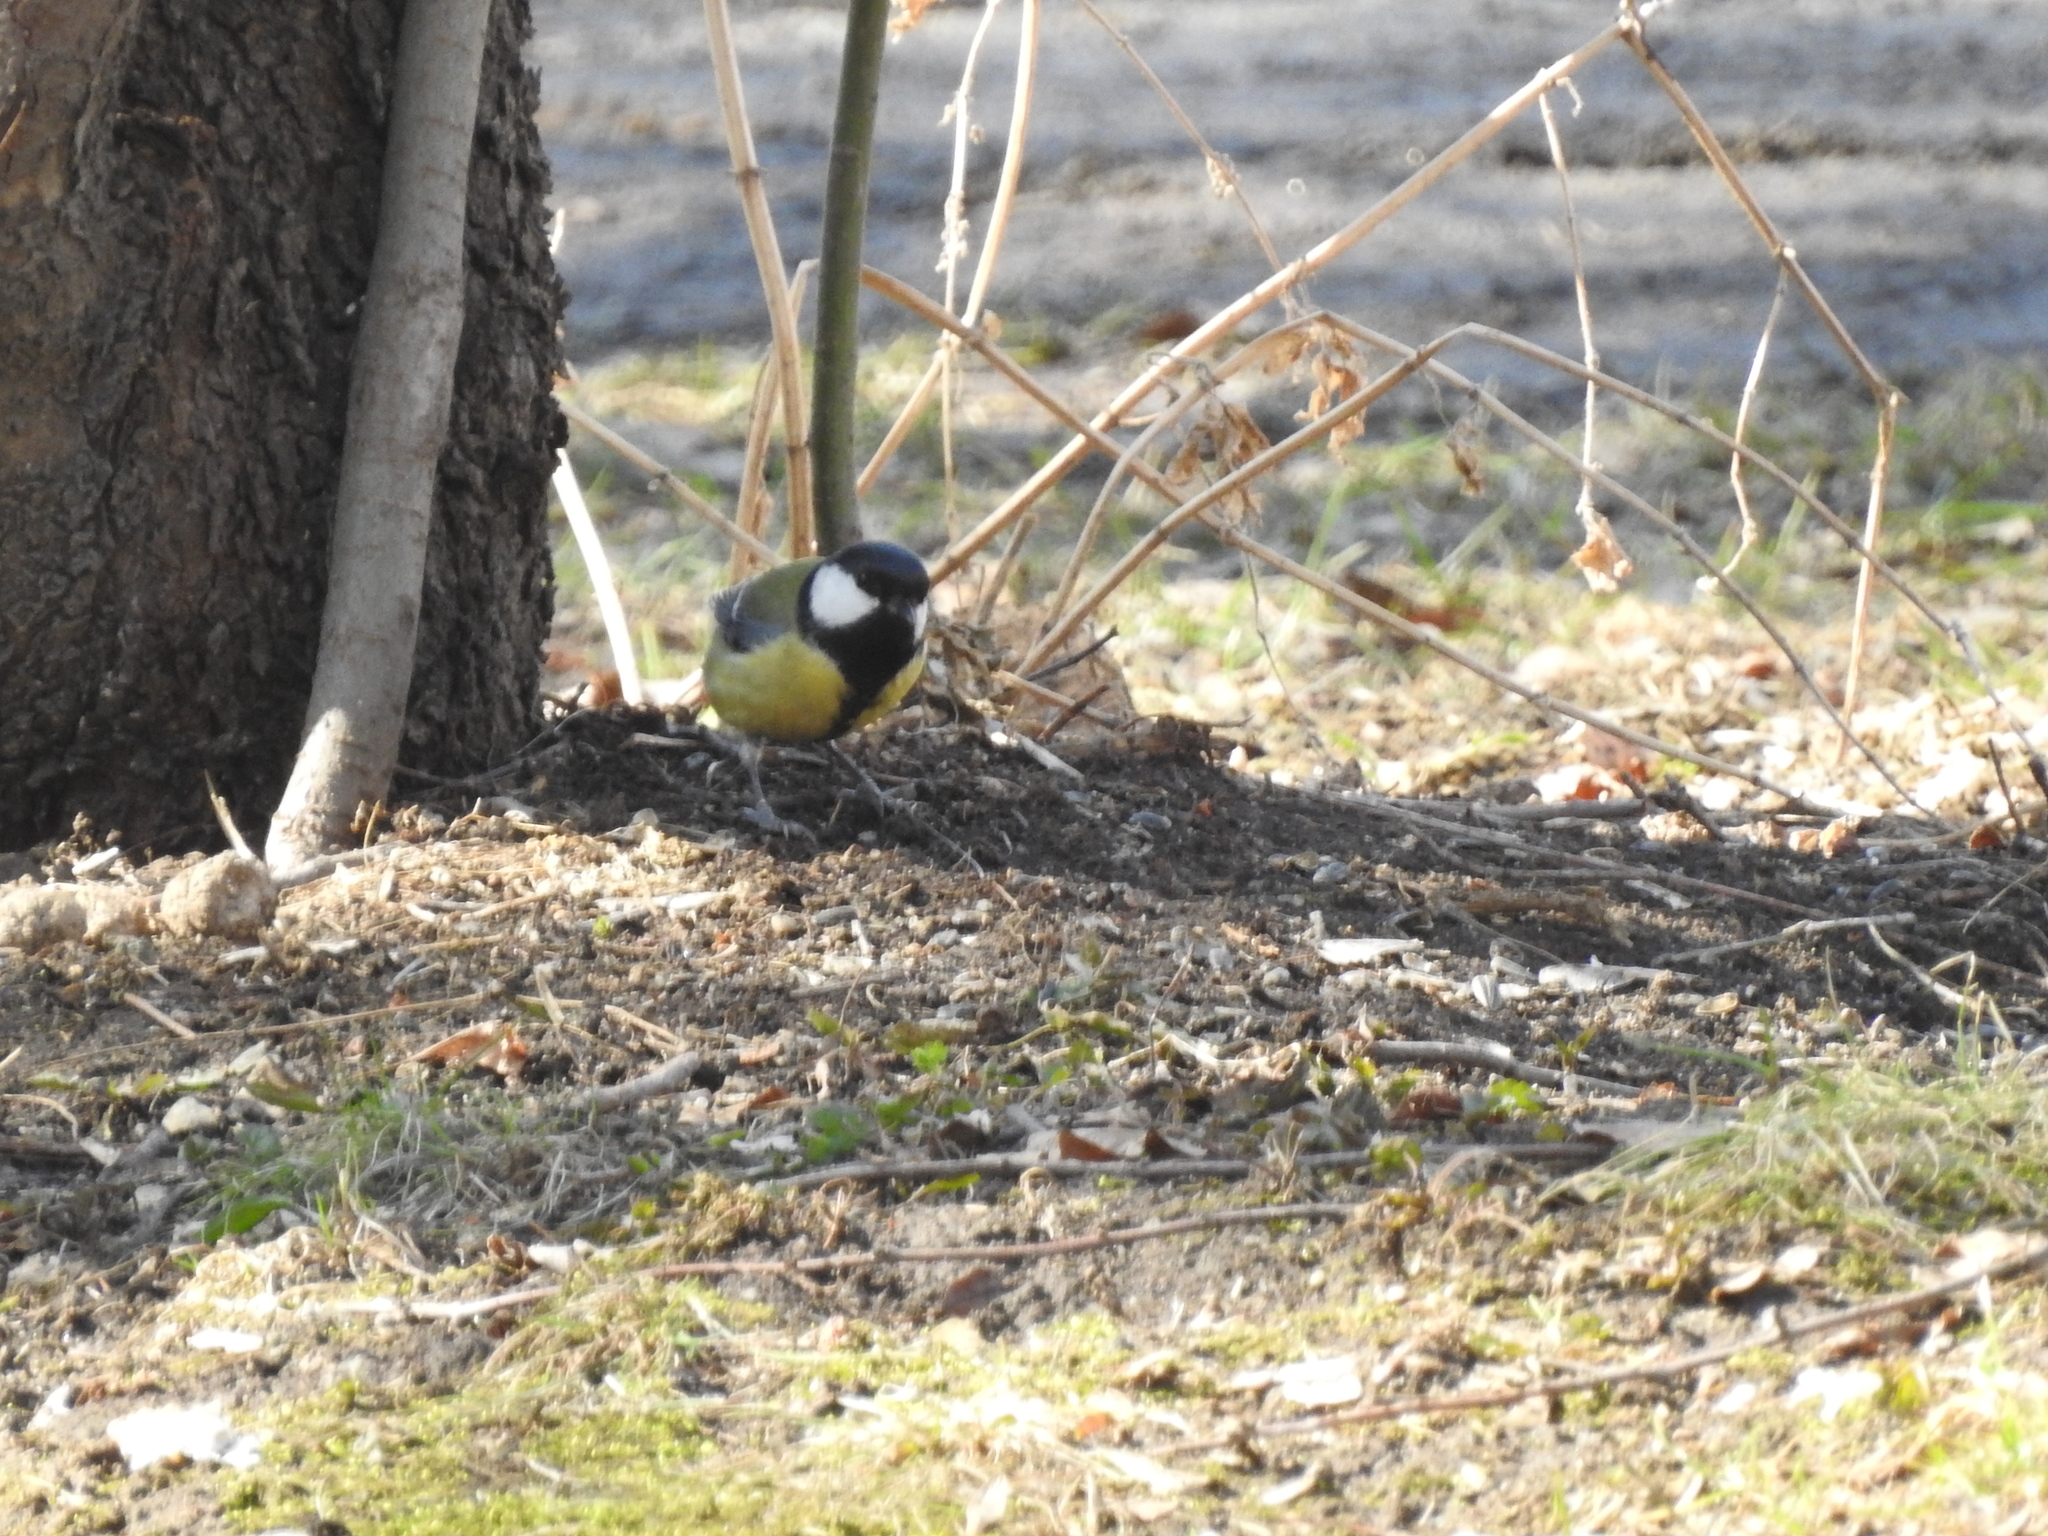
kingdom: Animalia
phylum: Chordata
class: Aves
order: Passeriformes
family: Paridae
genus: Parus
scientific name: Parus major
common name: Great tit
